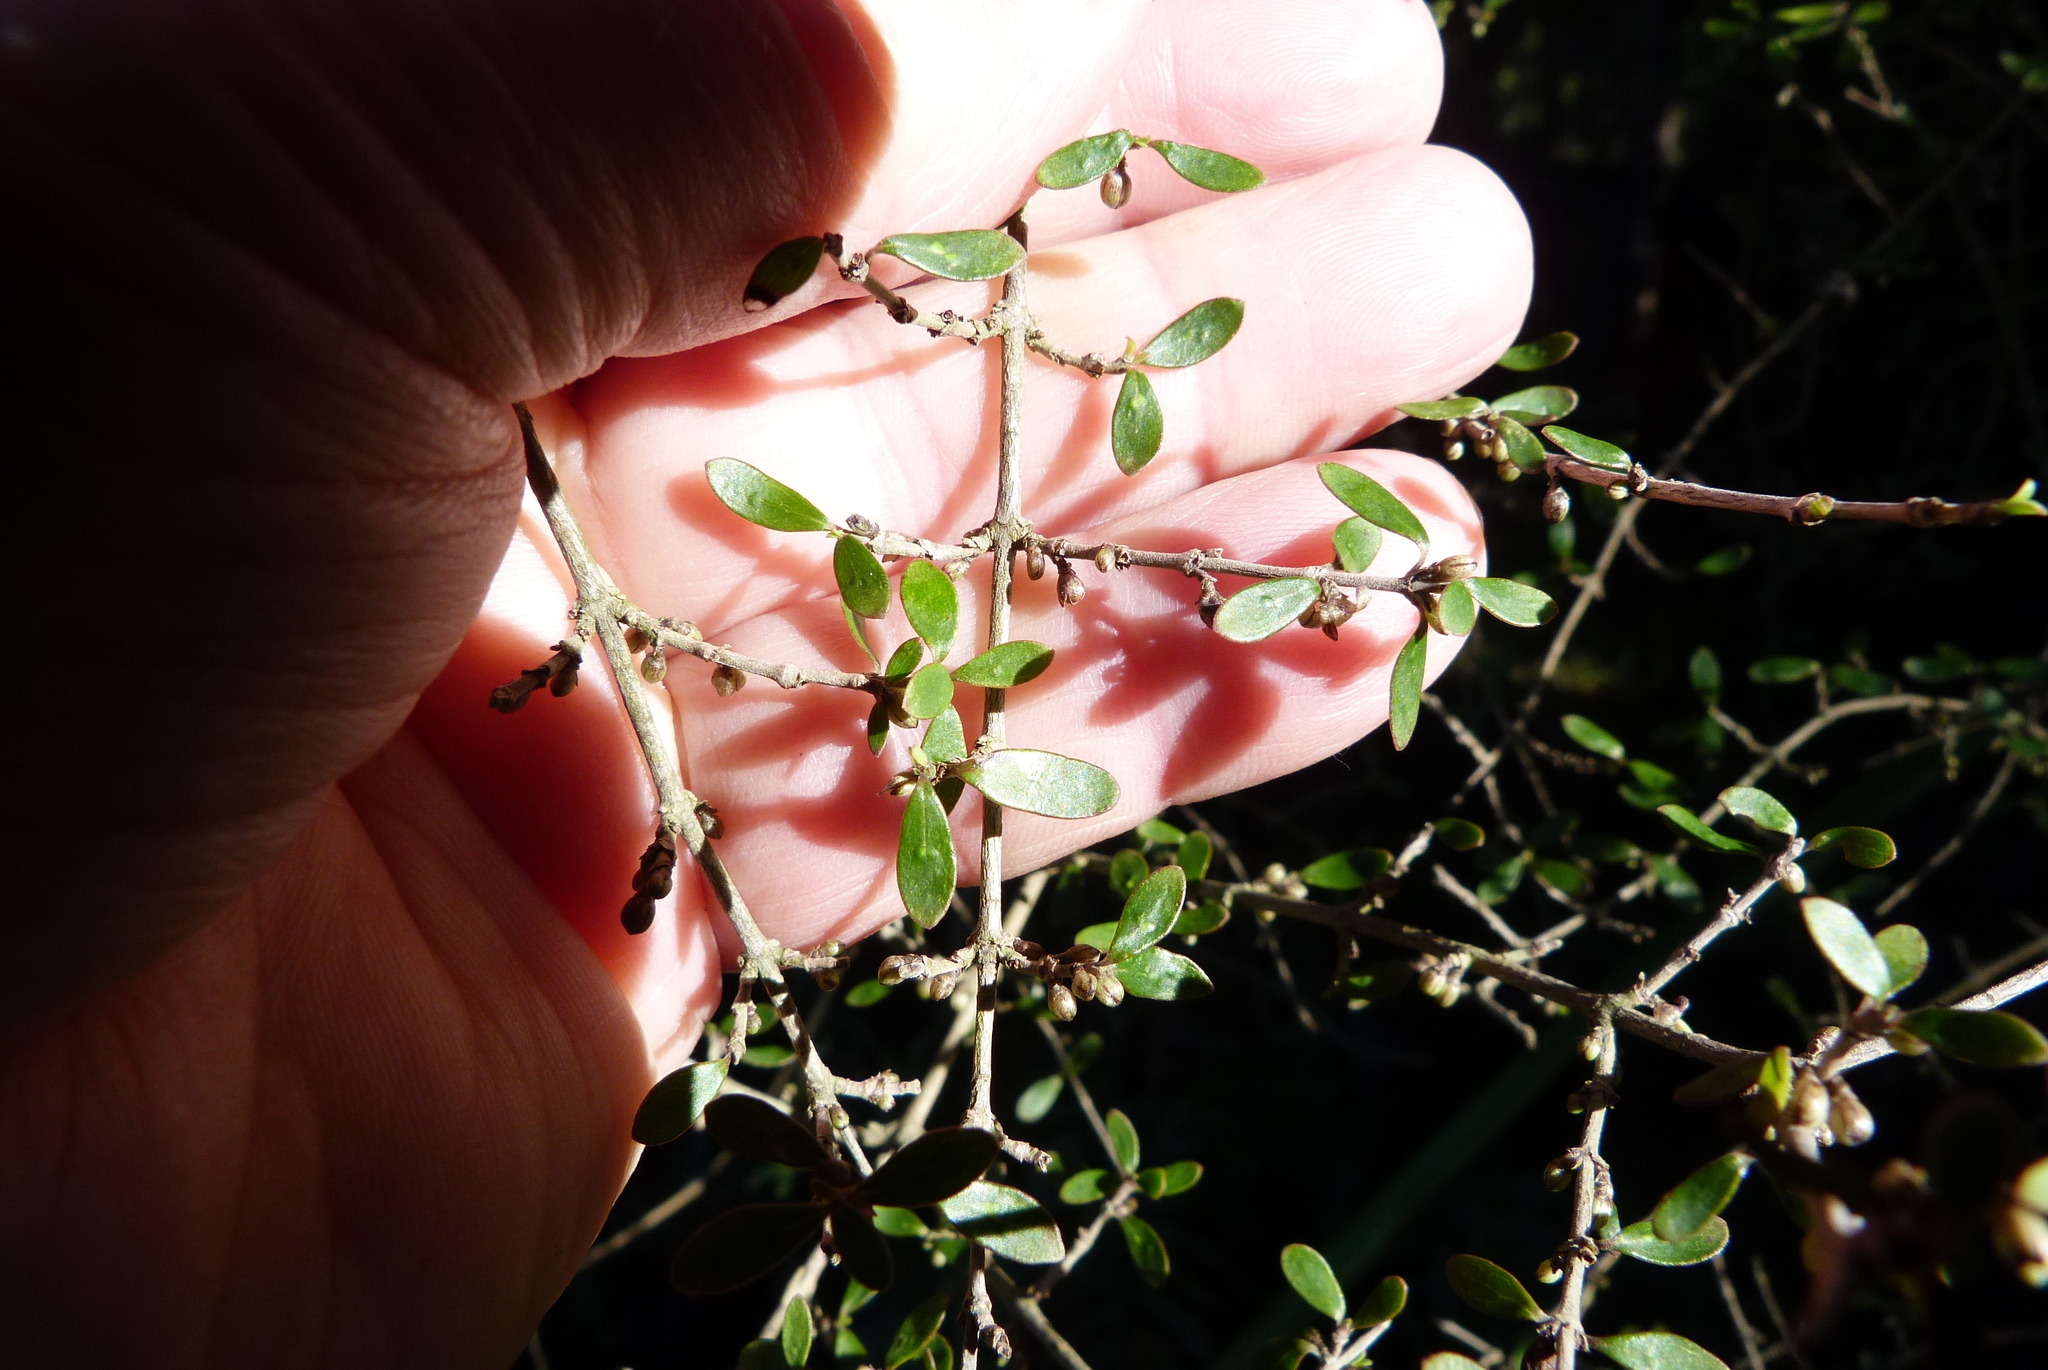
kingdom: Plantae
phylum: Tracheophyta
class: Magnoliopsida
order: Gentianales
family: Rubiaceae
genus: Coprosma
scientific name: Coprosma propinqua
